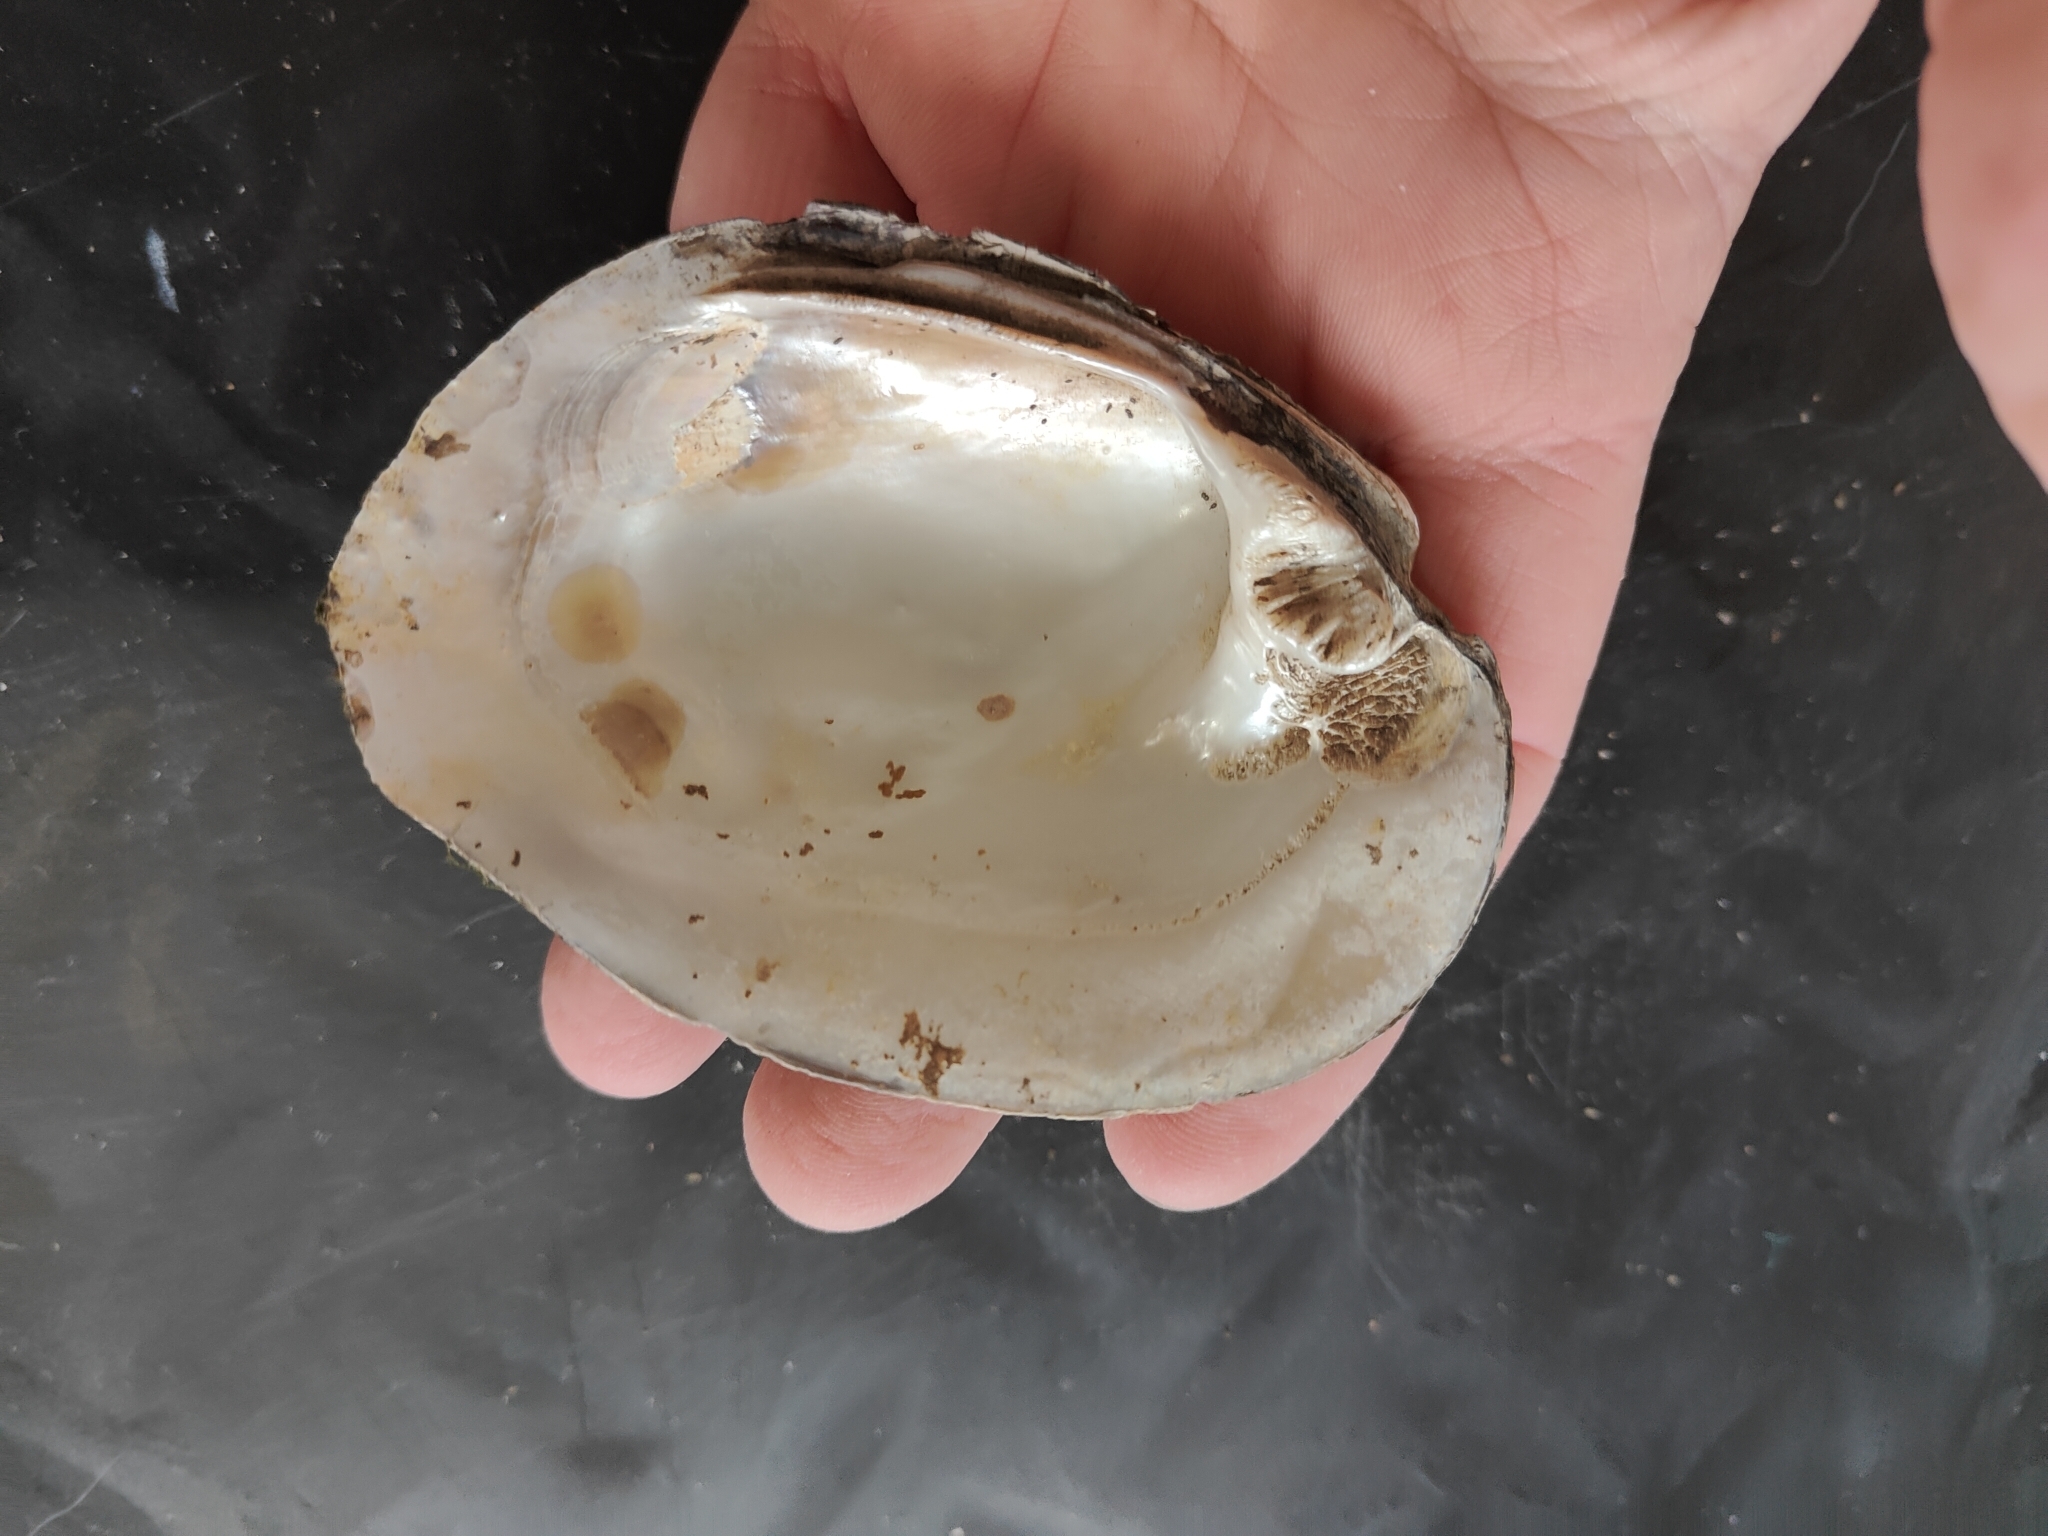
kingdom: Animalia
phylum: Mollusca
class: Bivalvia
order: Unionida
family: Unionidae
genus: Amblema
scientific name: Amblema plicata
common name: Threeridge
